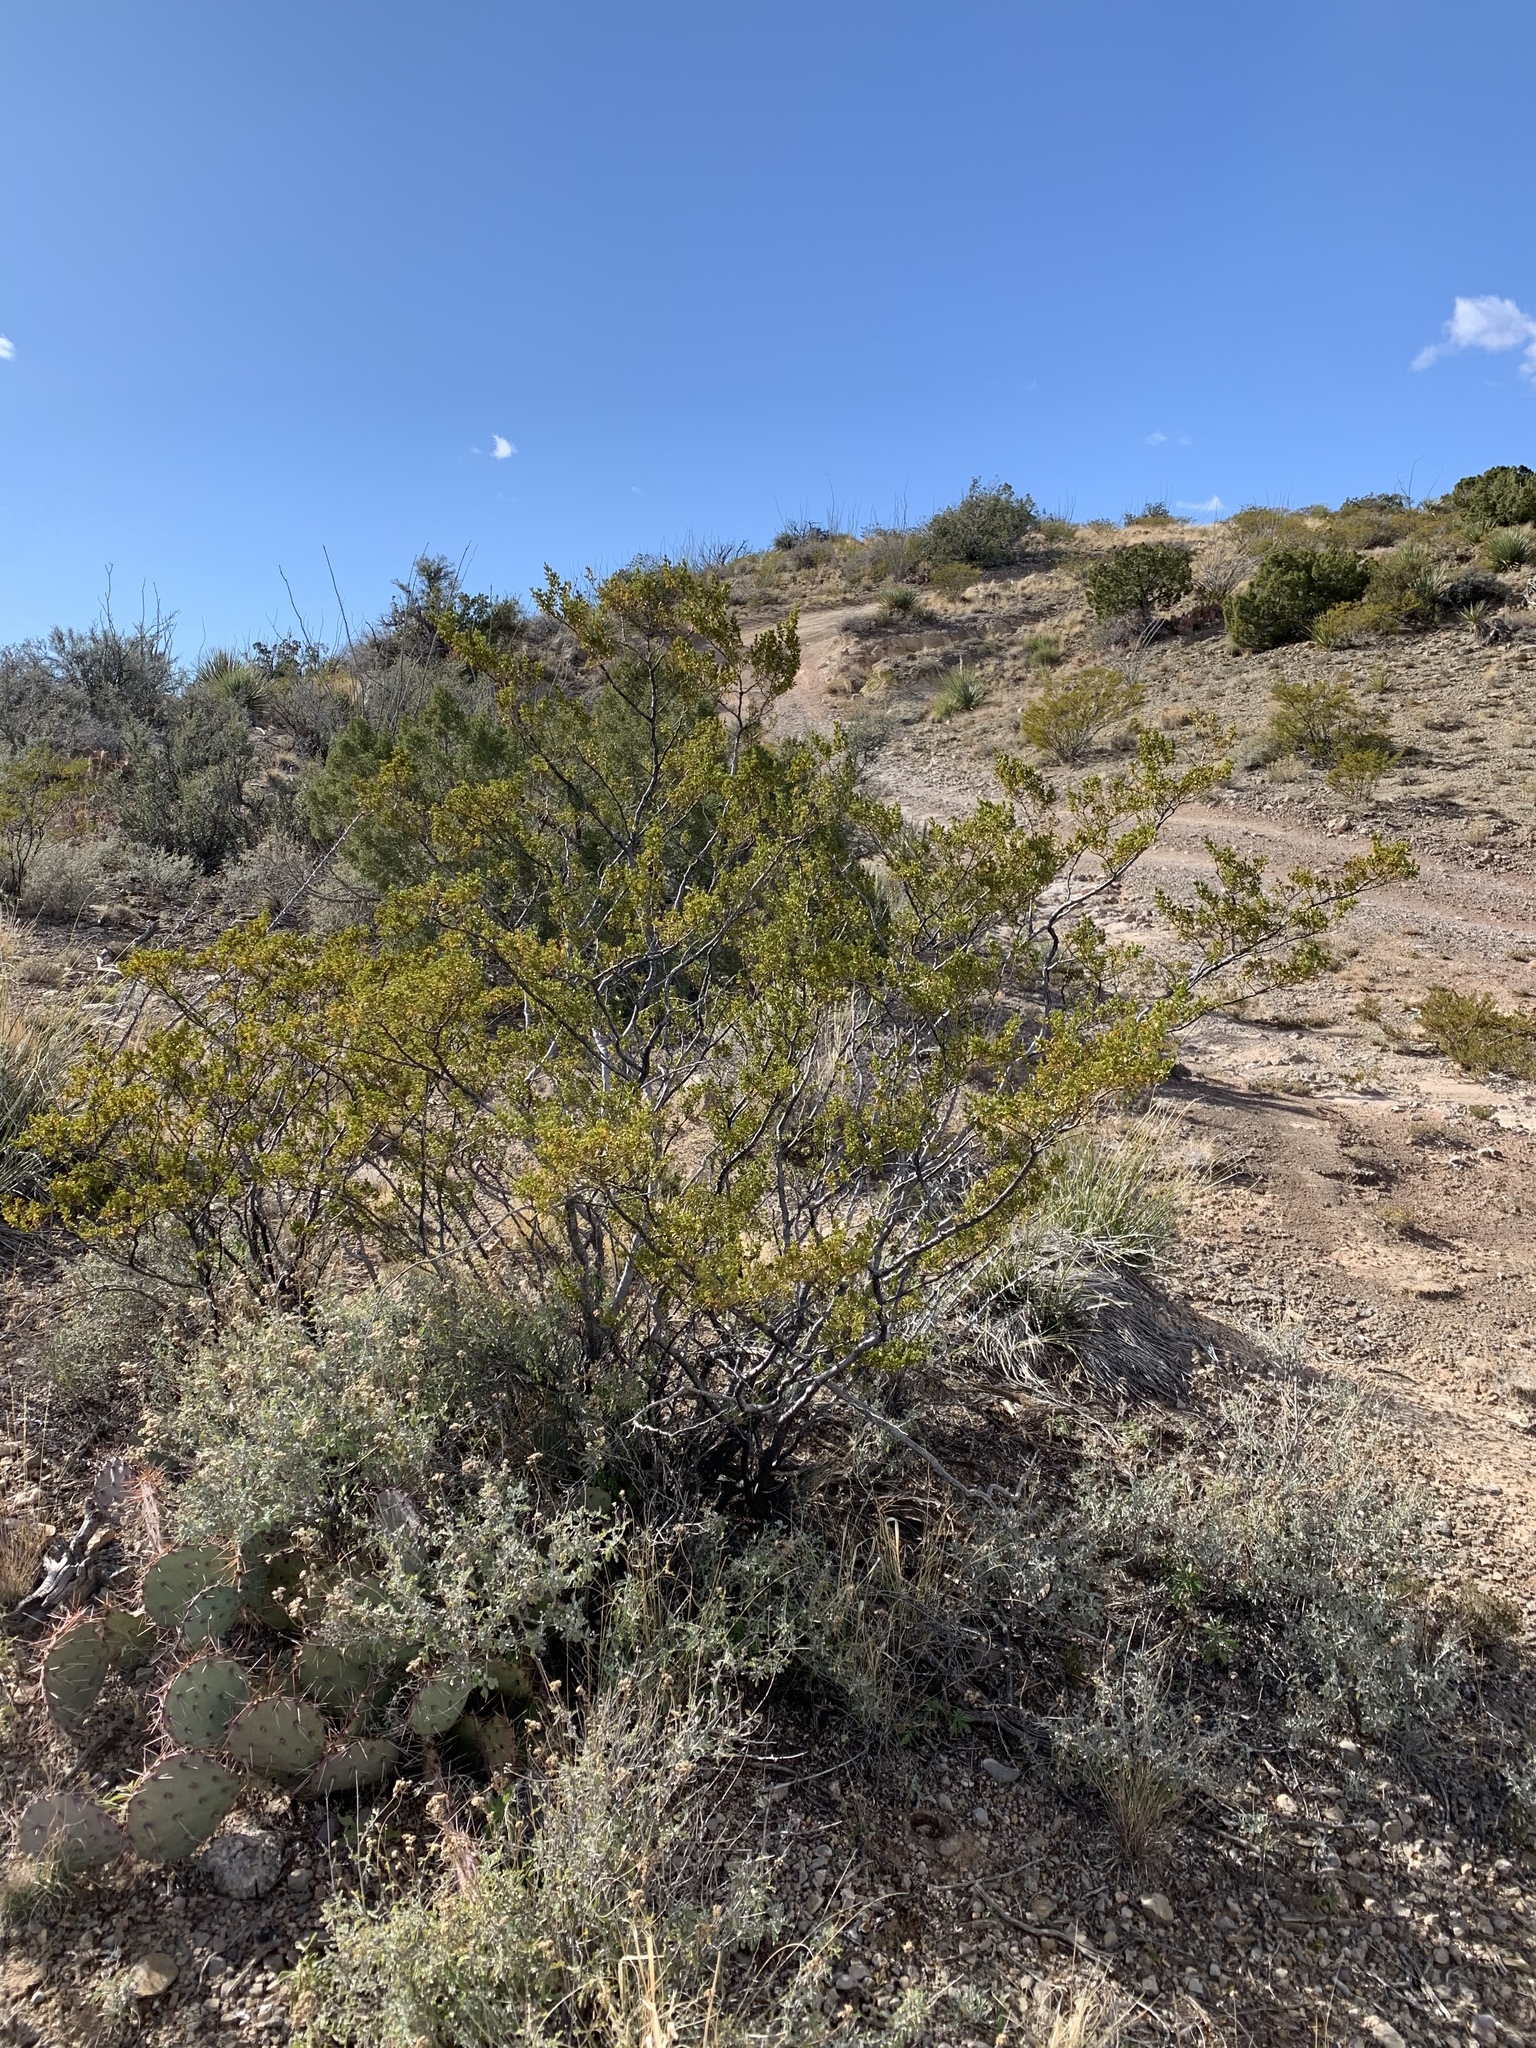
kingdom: Plantae
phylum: Tracheophyta
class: Magnoliopsida
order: Zygophyllales
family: Zygophyllaceae
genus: Larrea
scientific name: Larrea tridentata
